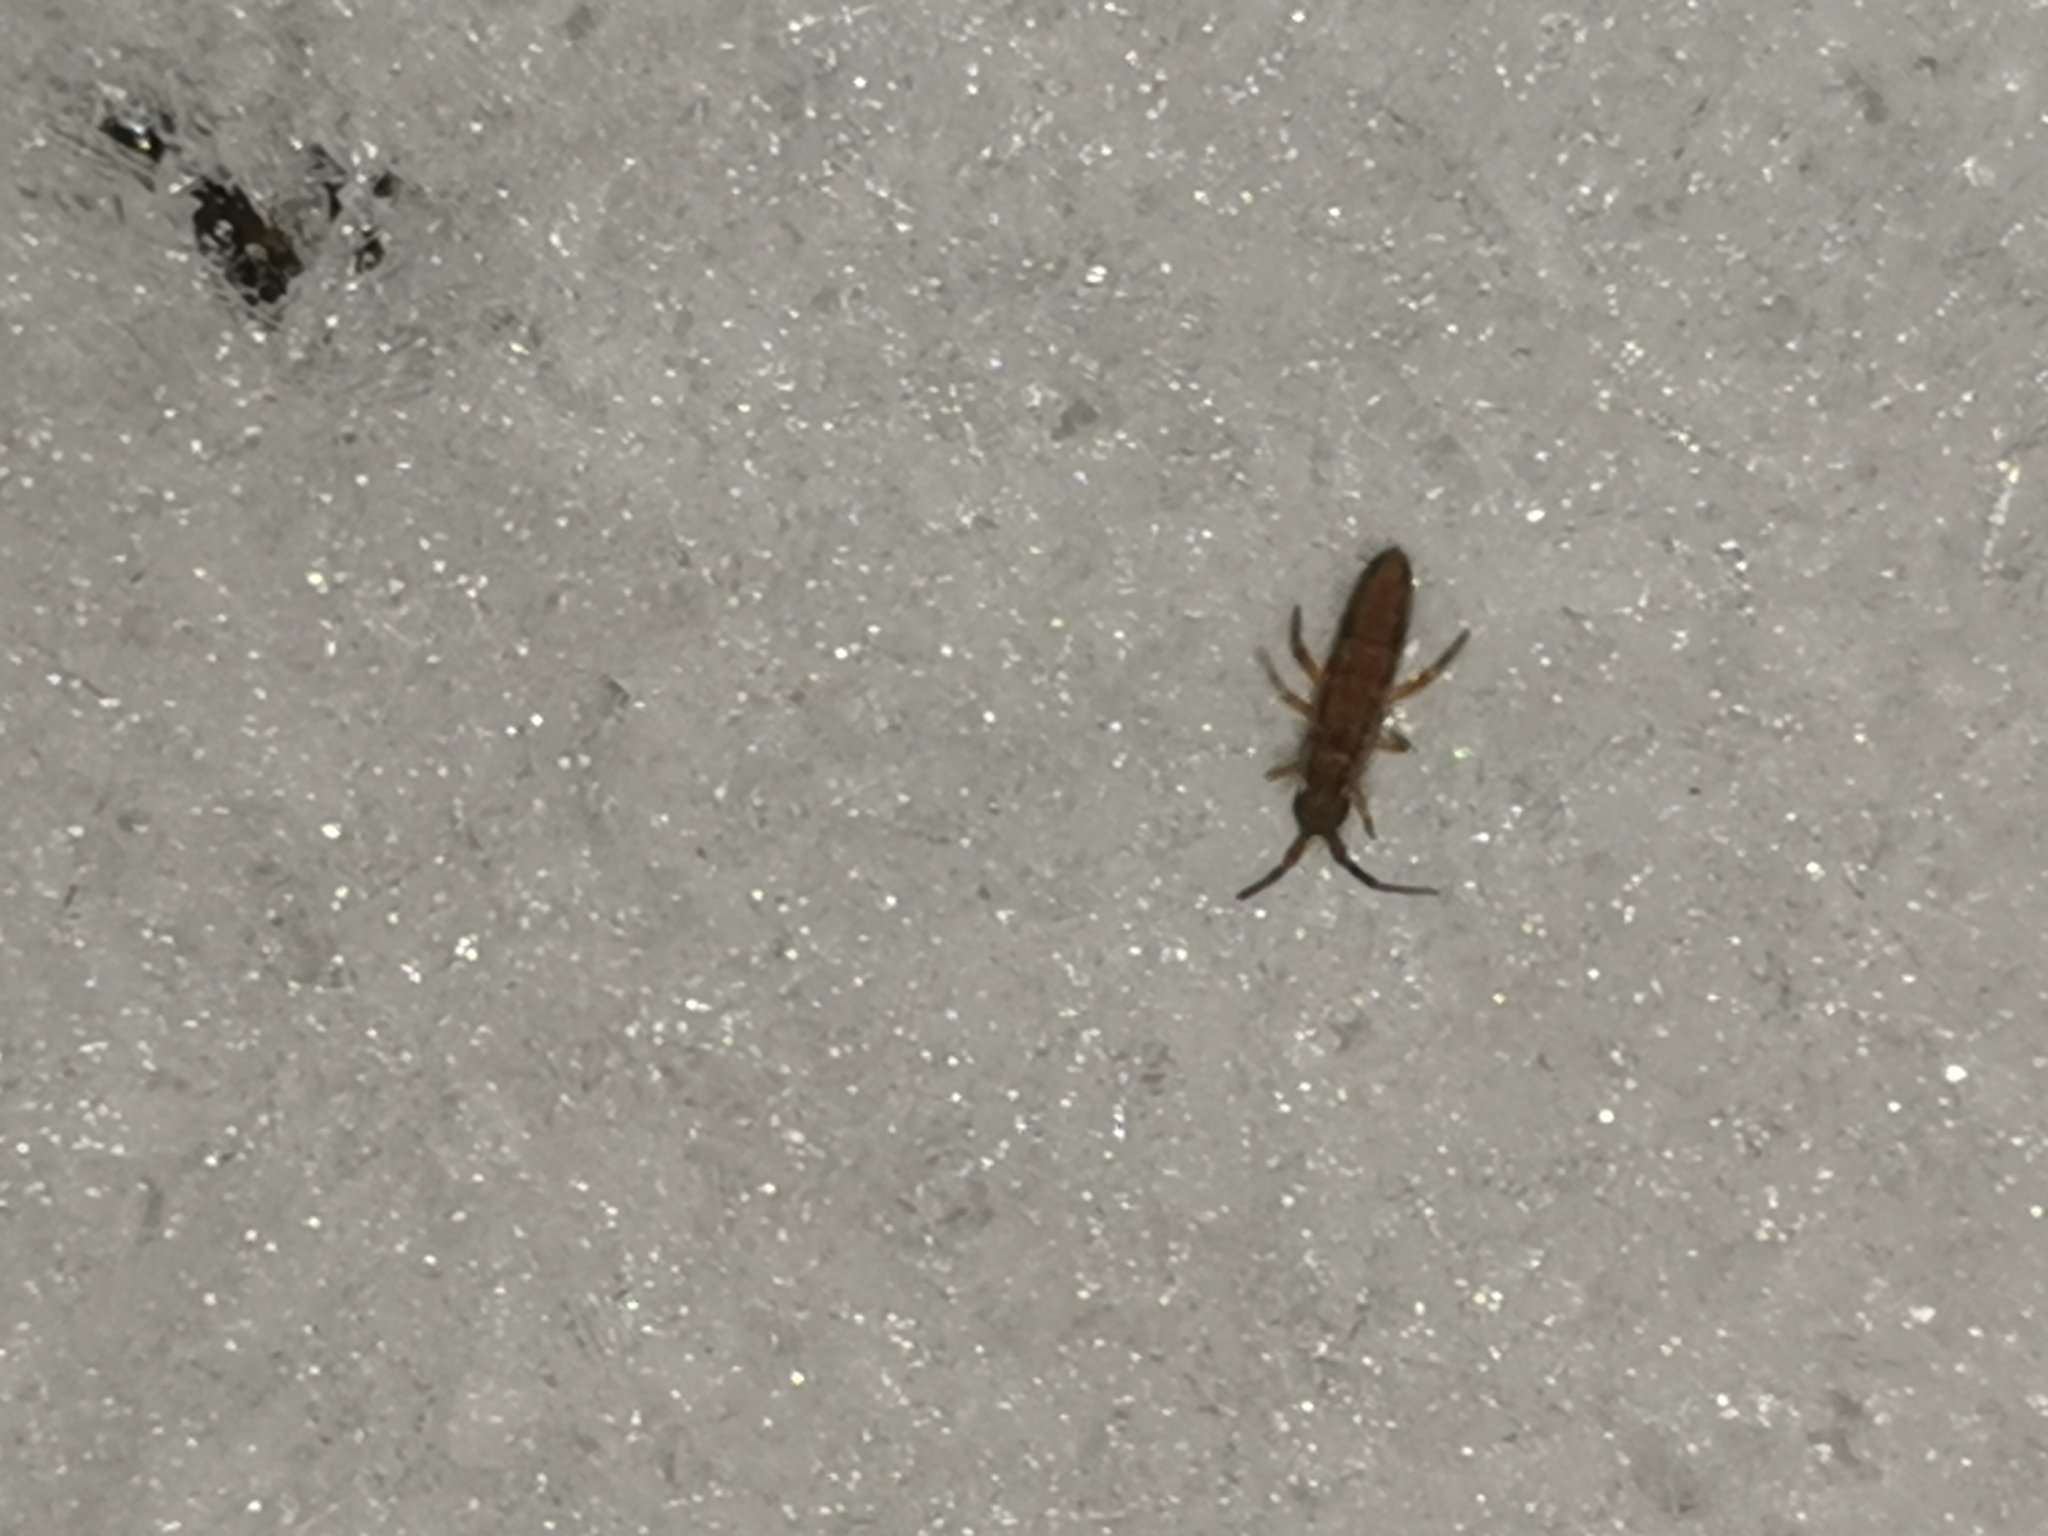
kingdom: Animalia
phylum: Arthropoda
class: Collembola
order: Entomobryomorpha
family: Entomobryidae
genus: Entomobrya
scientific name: Entomobrya nivalis
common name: Cosmopolitan springtail
